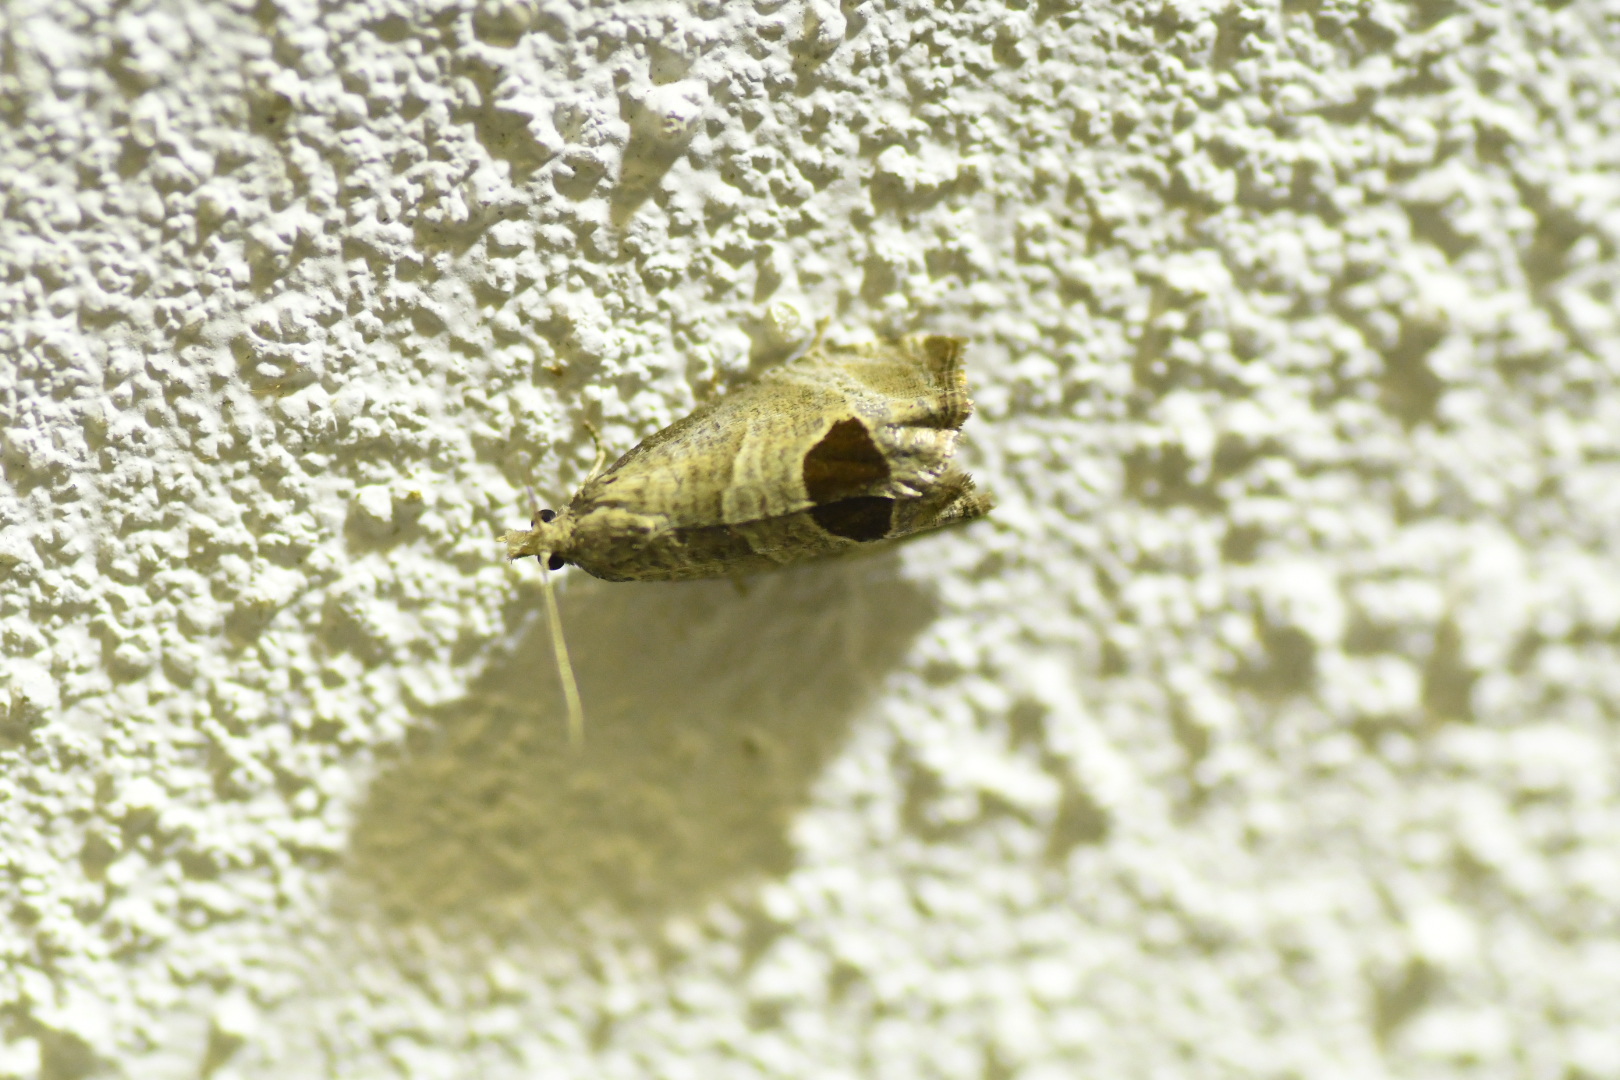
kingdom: Animalia
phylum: Arthropoda
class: Insecta
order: Lepidoptera
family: Tortricidae
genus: Notocelia
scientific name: Notocelia uddmanniana
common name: Bramble shoot moth
